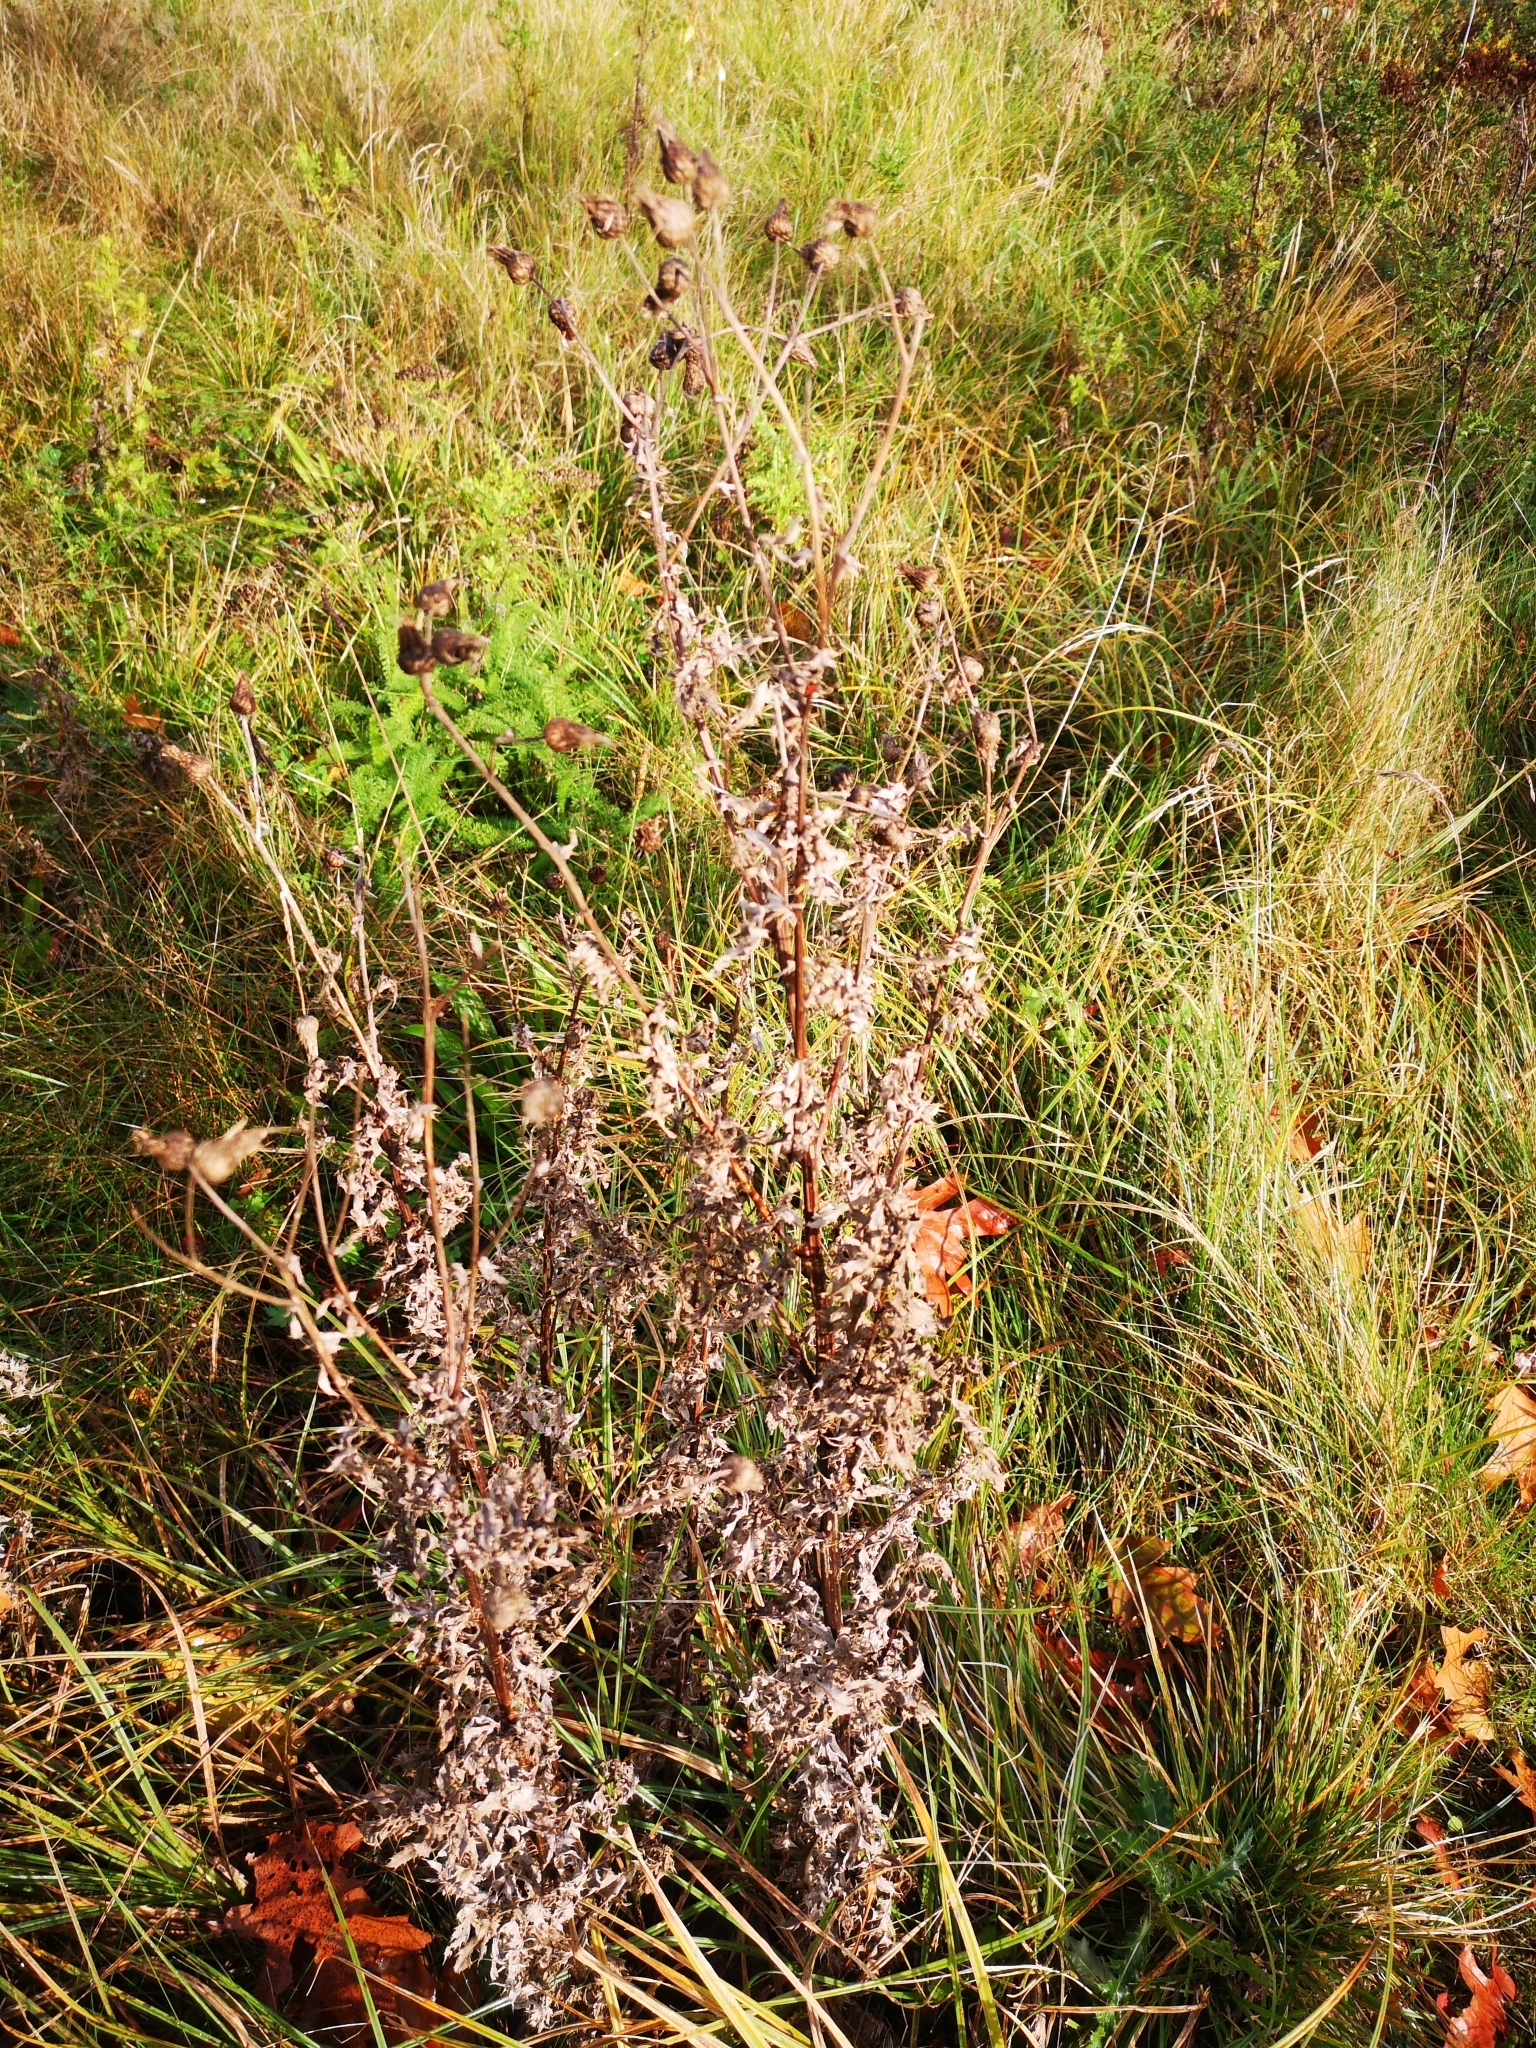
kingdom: Plantae
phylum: Tracheophyta
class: Magnoliopsida
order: Asterales
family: Asteraceae
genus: Cirsium
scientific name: Cirsium arvense
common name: Creeping thistle
